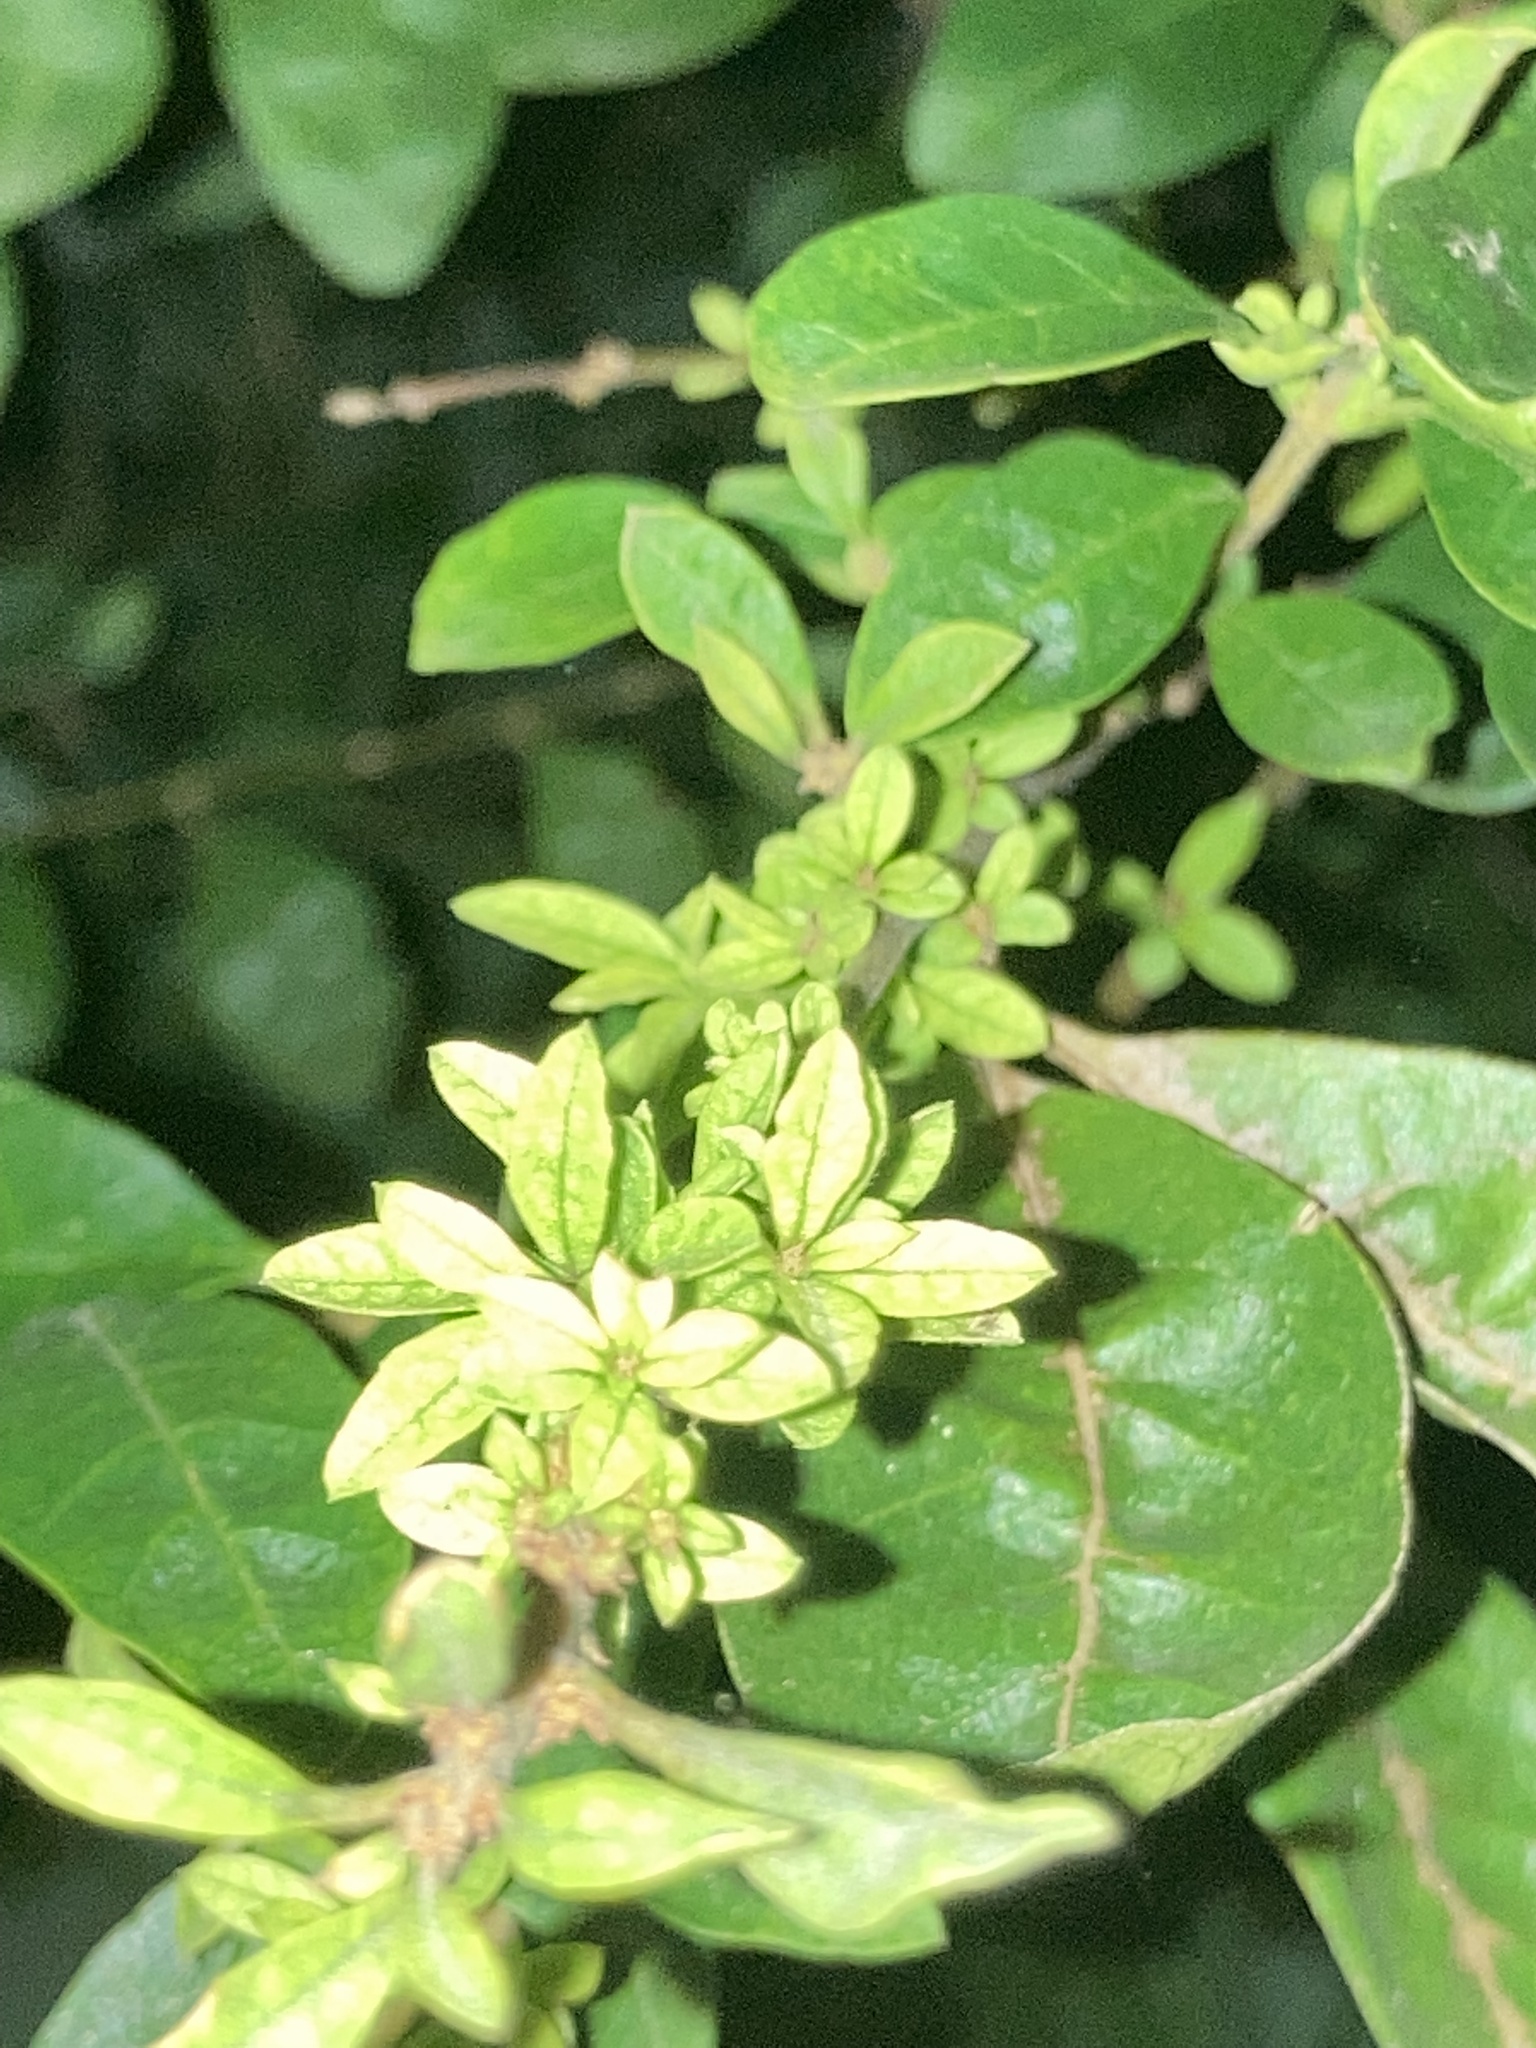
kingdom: Plantae
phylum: Tracheophyta
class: Magnoliopsida
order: Lamiales
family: Oleaceae
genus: Ligustrum
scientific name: Ligustrum ovalifolium
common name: California privet
